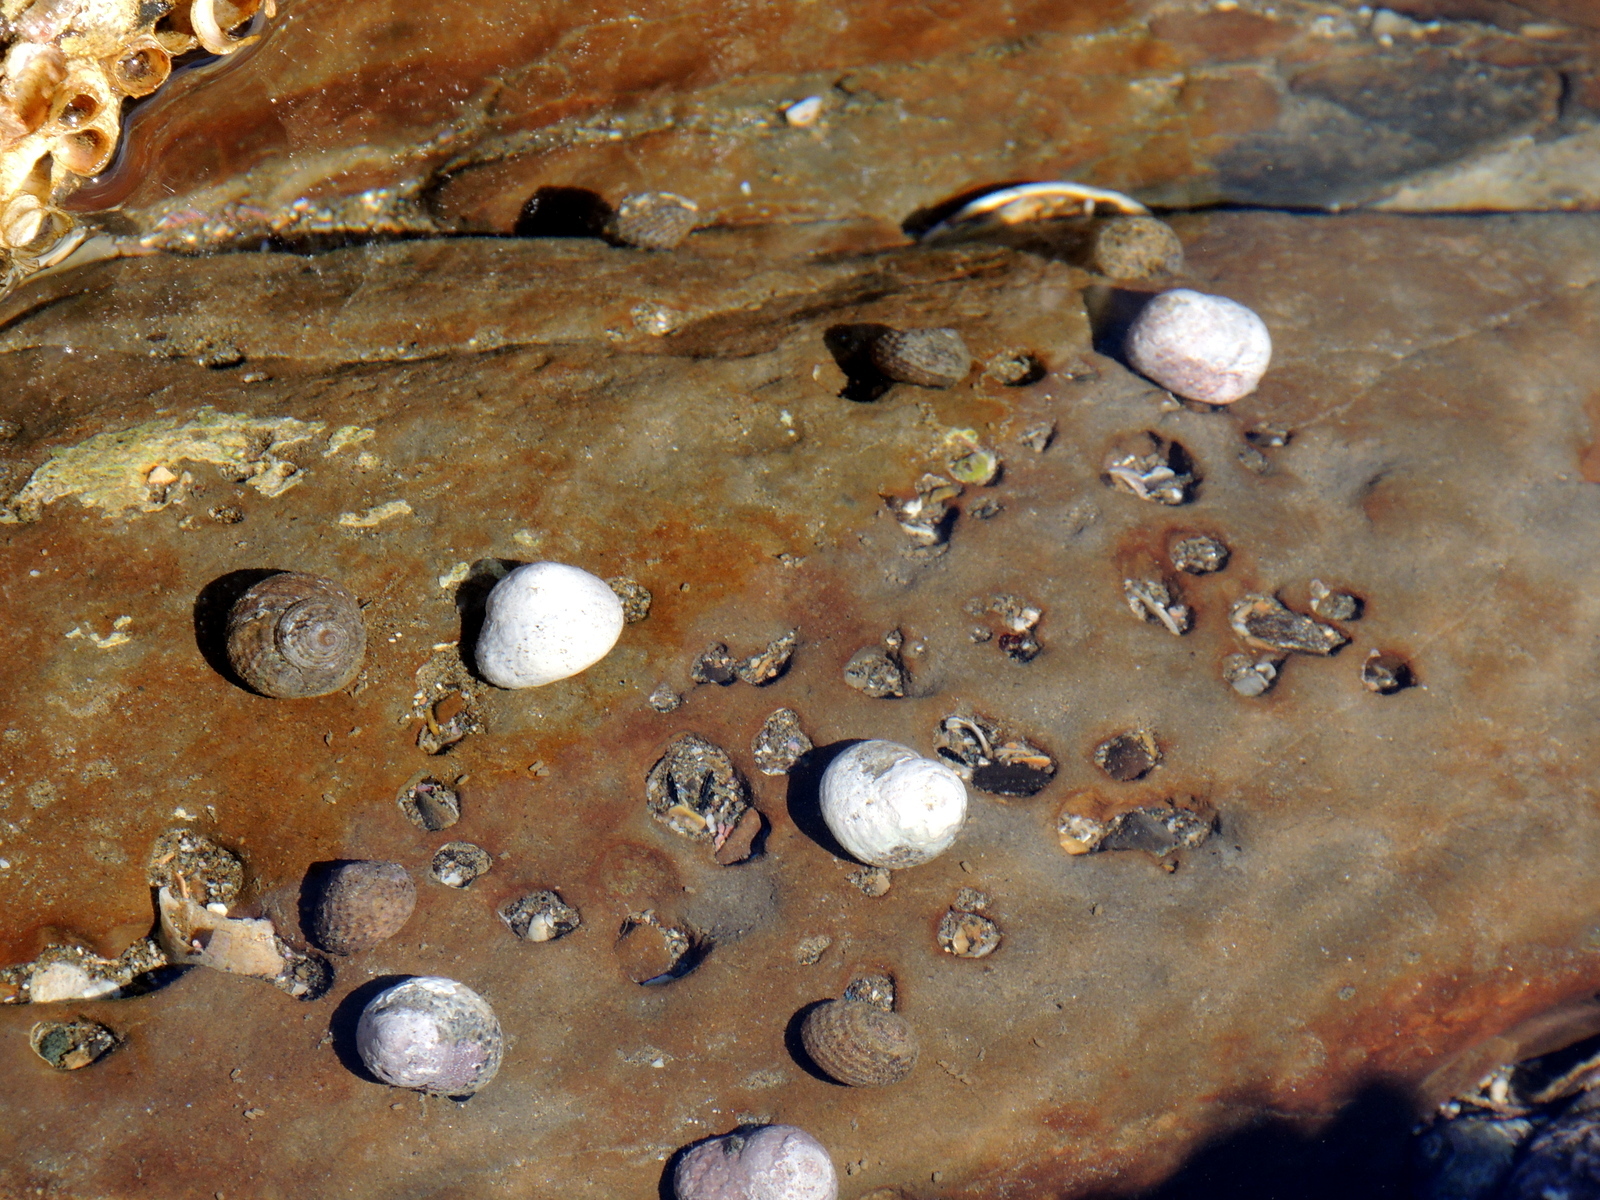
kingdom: Animalia
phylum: Mollusca
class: Gastropoda
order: Trochida
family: Tegulidae
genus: Tegula
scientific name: Tegula eiseni
